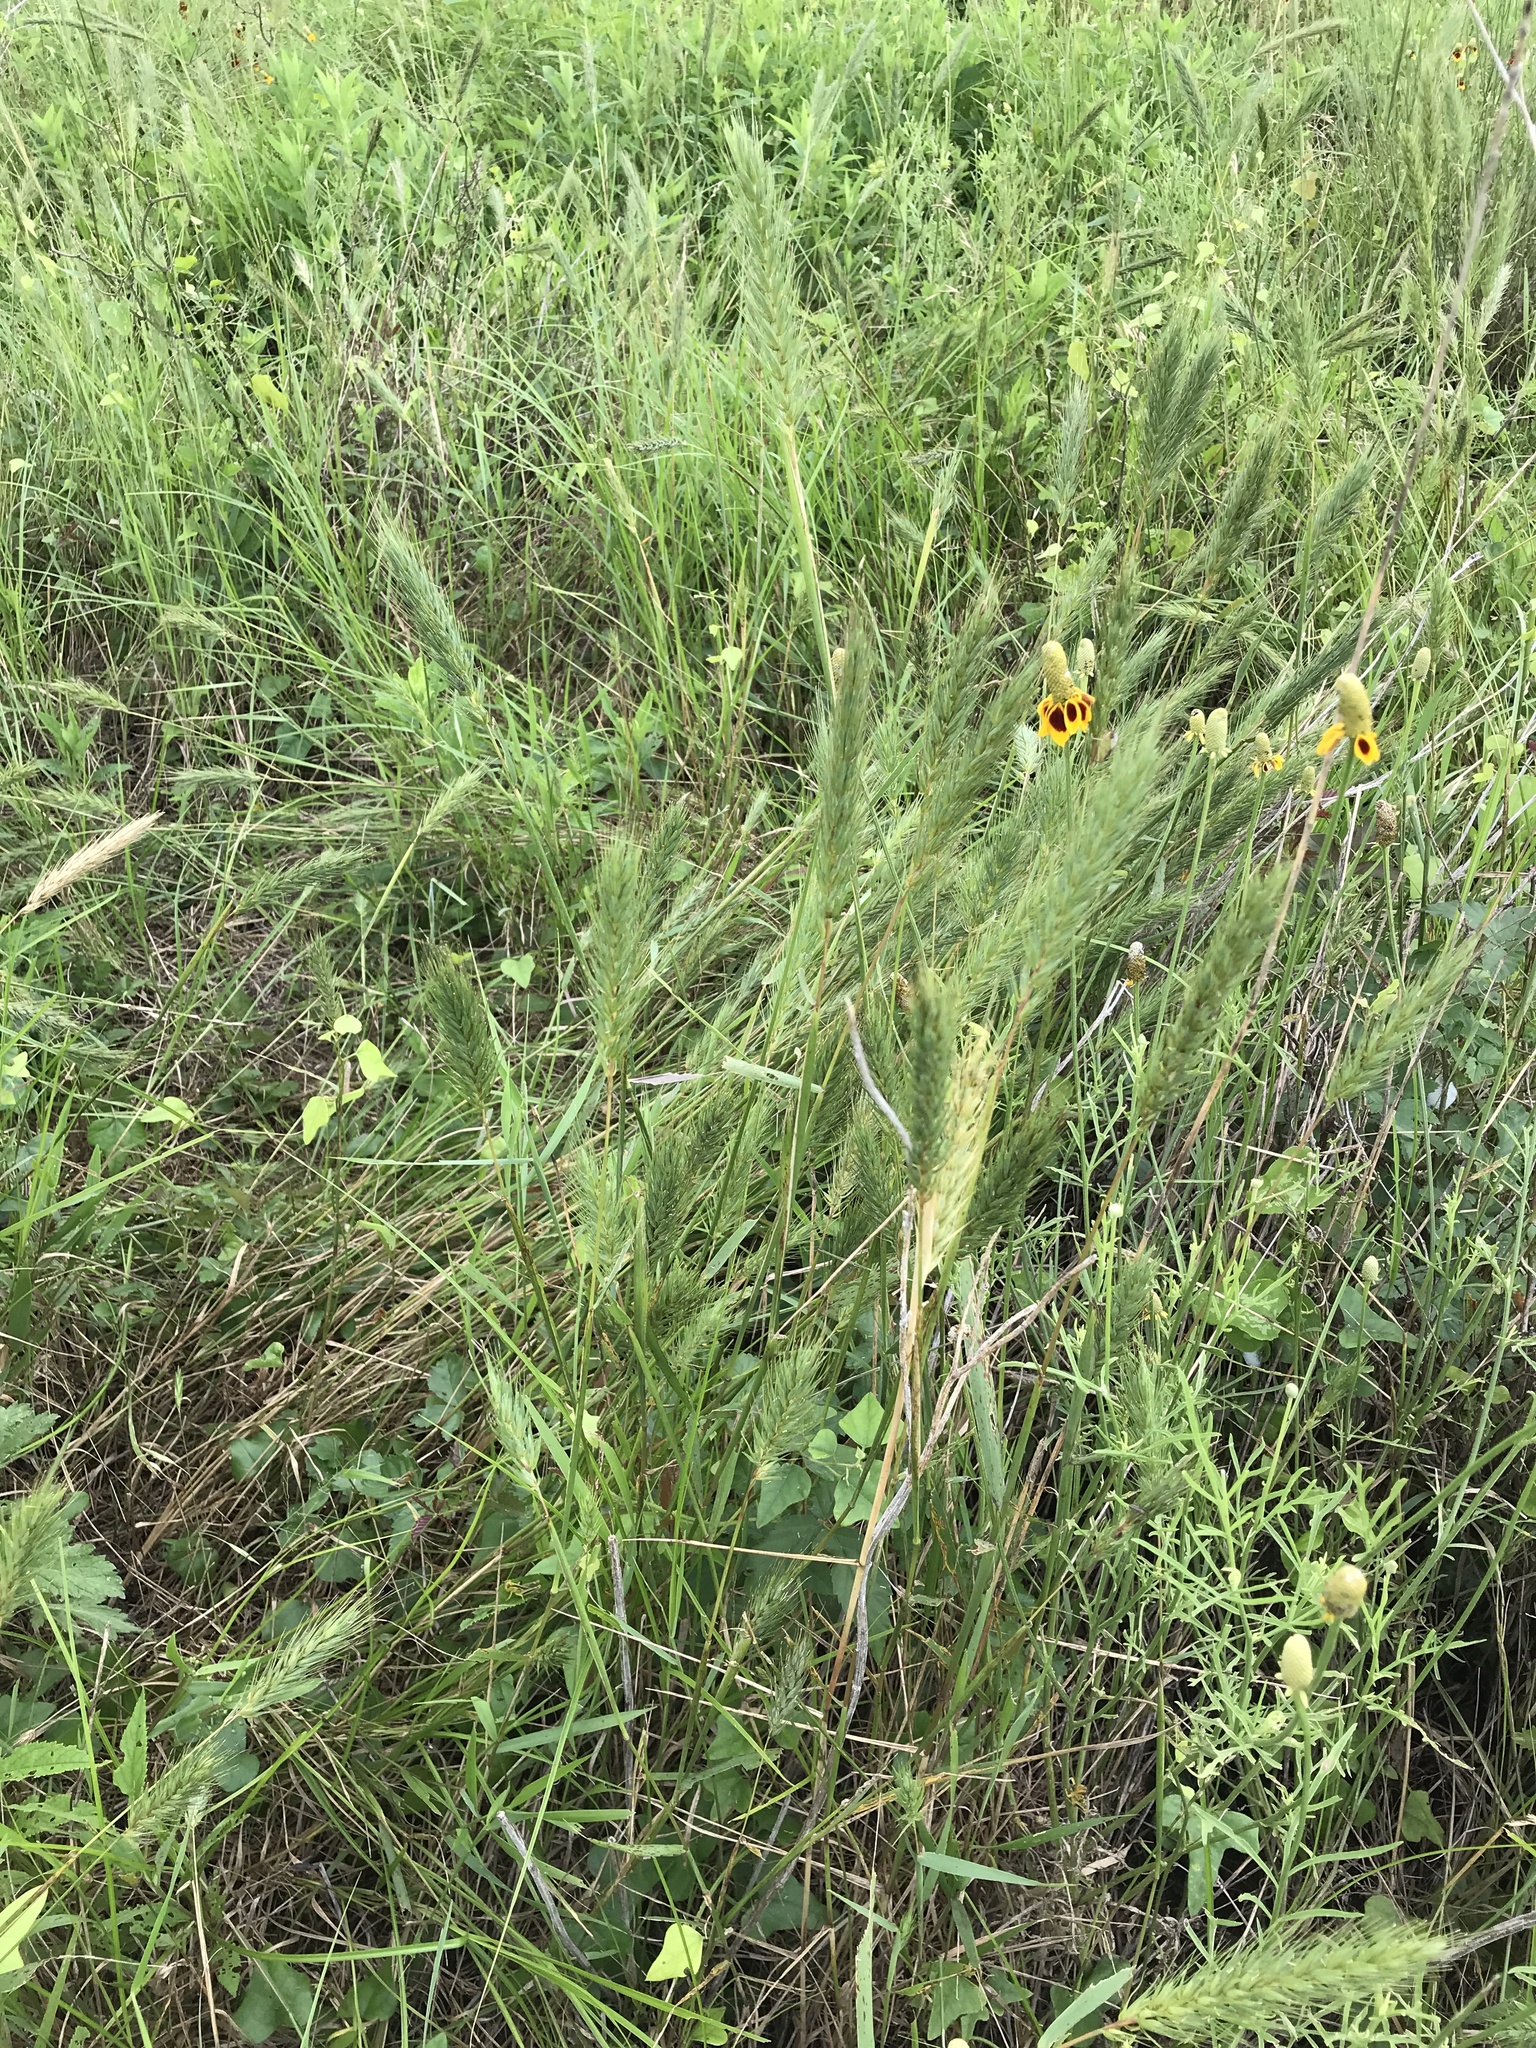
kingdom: Plantae
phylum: Tracheophyta
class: Liliopsida
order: Poales
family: Poaceae
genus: Elymus
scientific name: Elymus virginicus
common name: Common eastern wildrye
